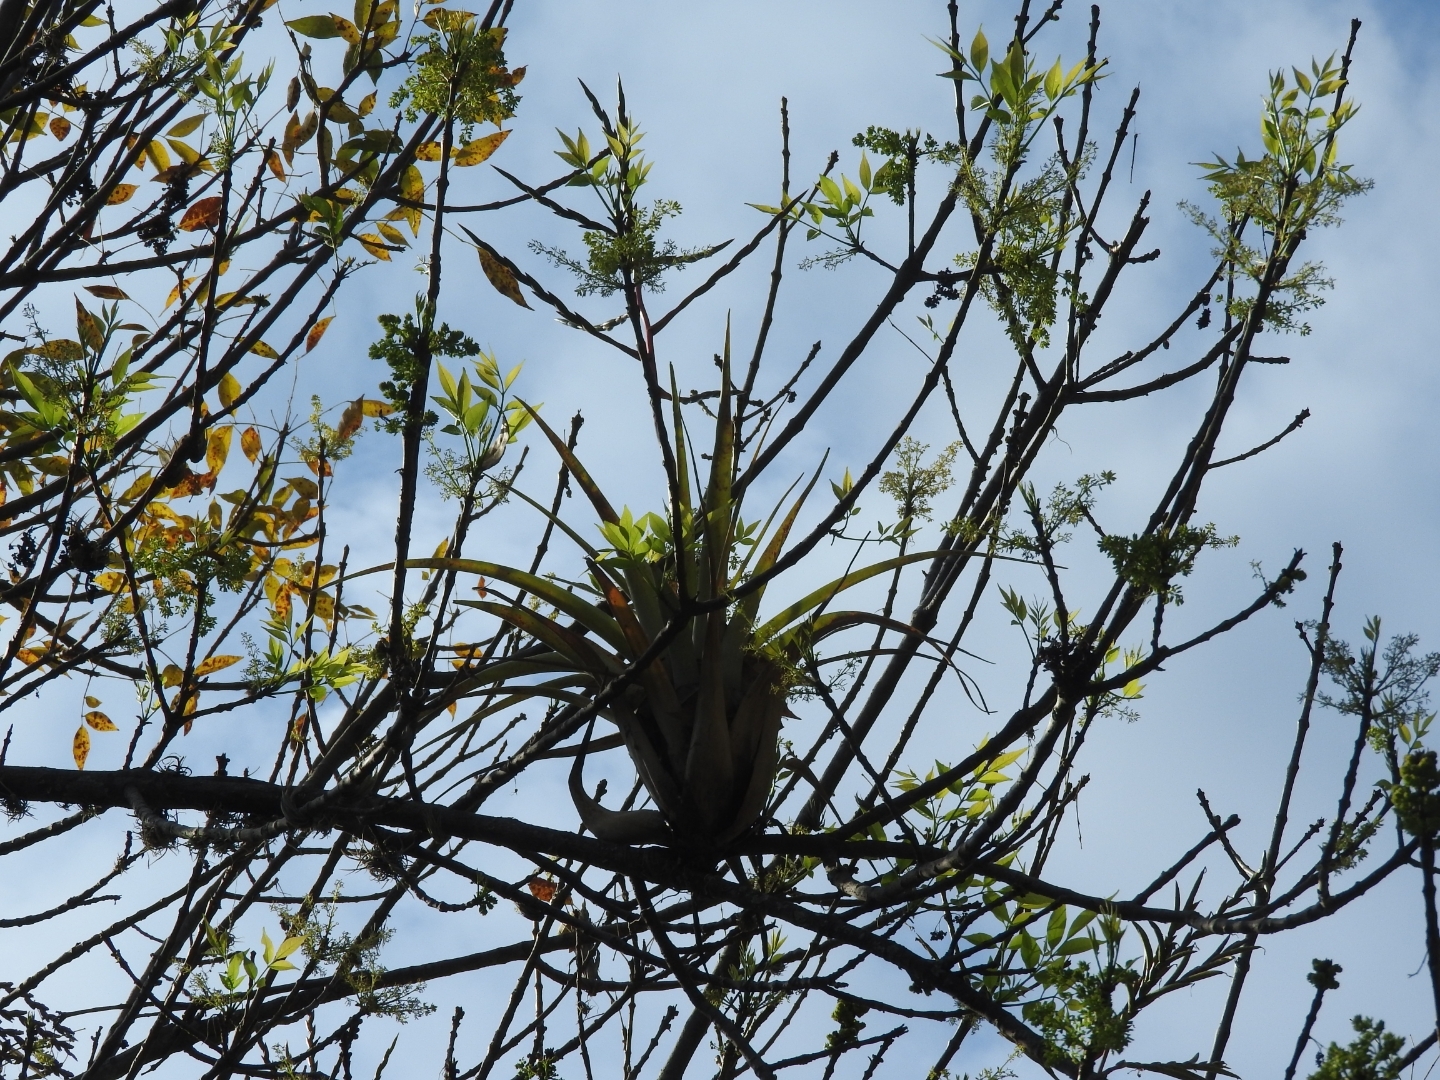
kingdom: Plantae
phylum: Tracheophyta
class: Liliopsida
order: Poales
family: Bromeliaceae
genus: Tillandsia
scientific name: Tillandsia makoyana
